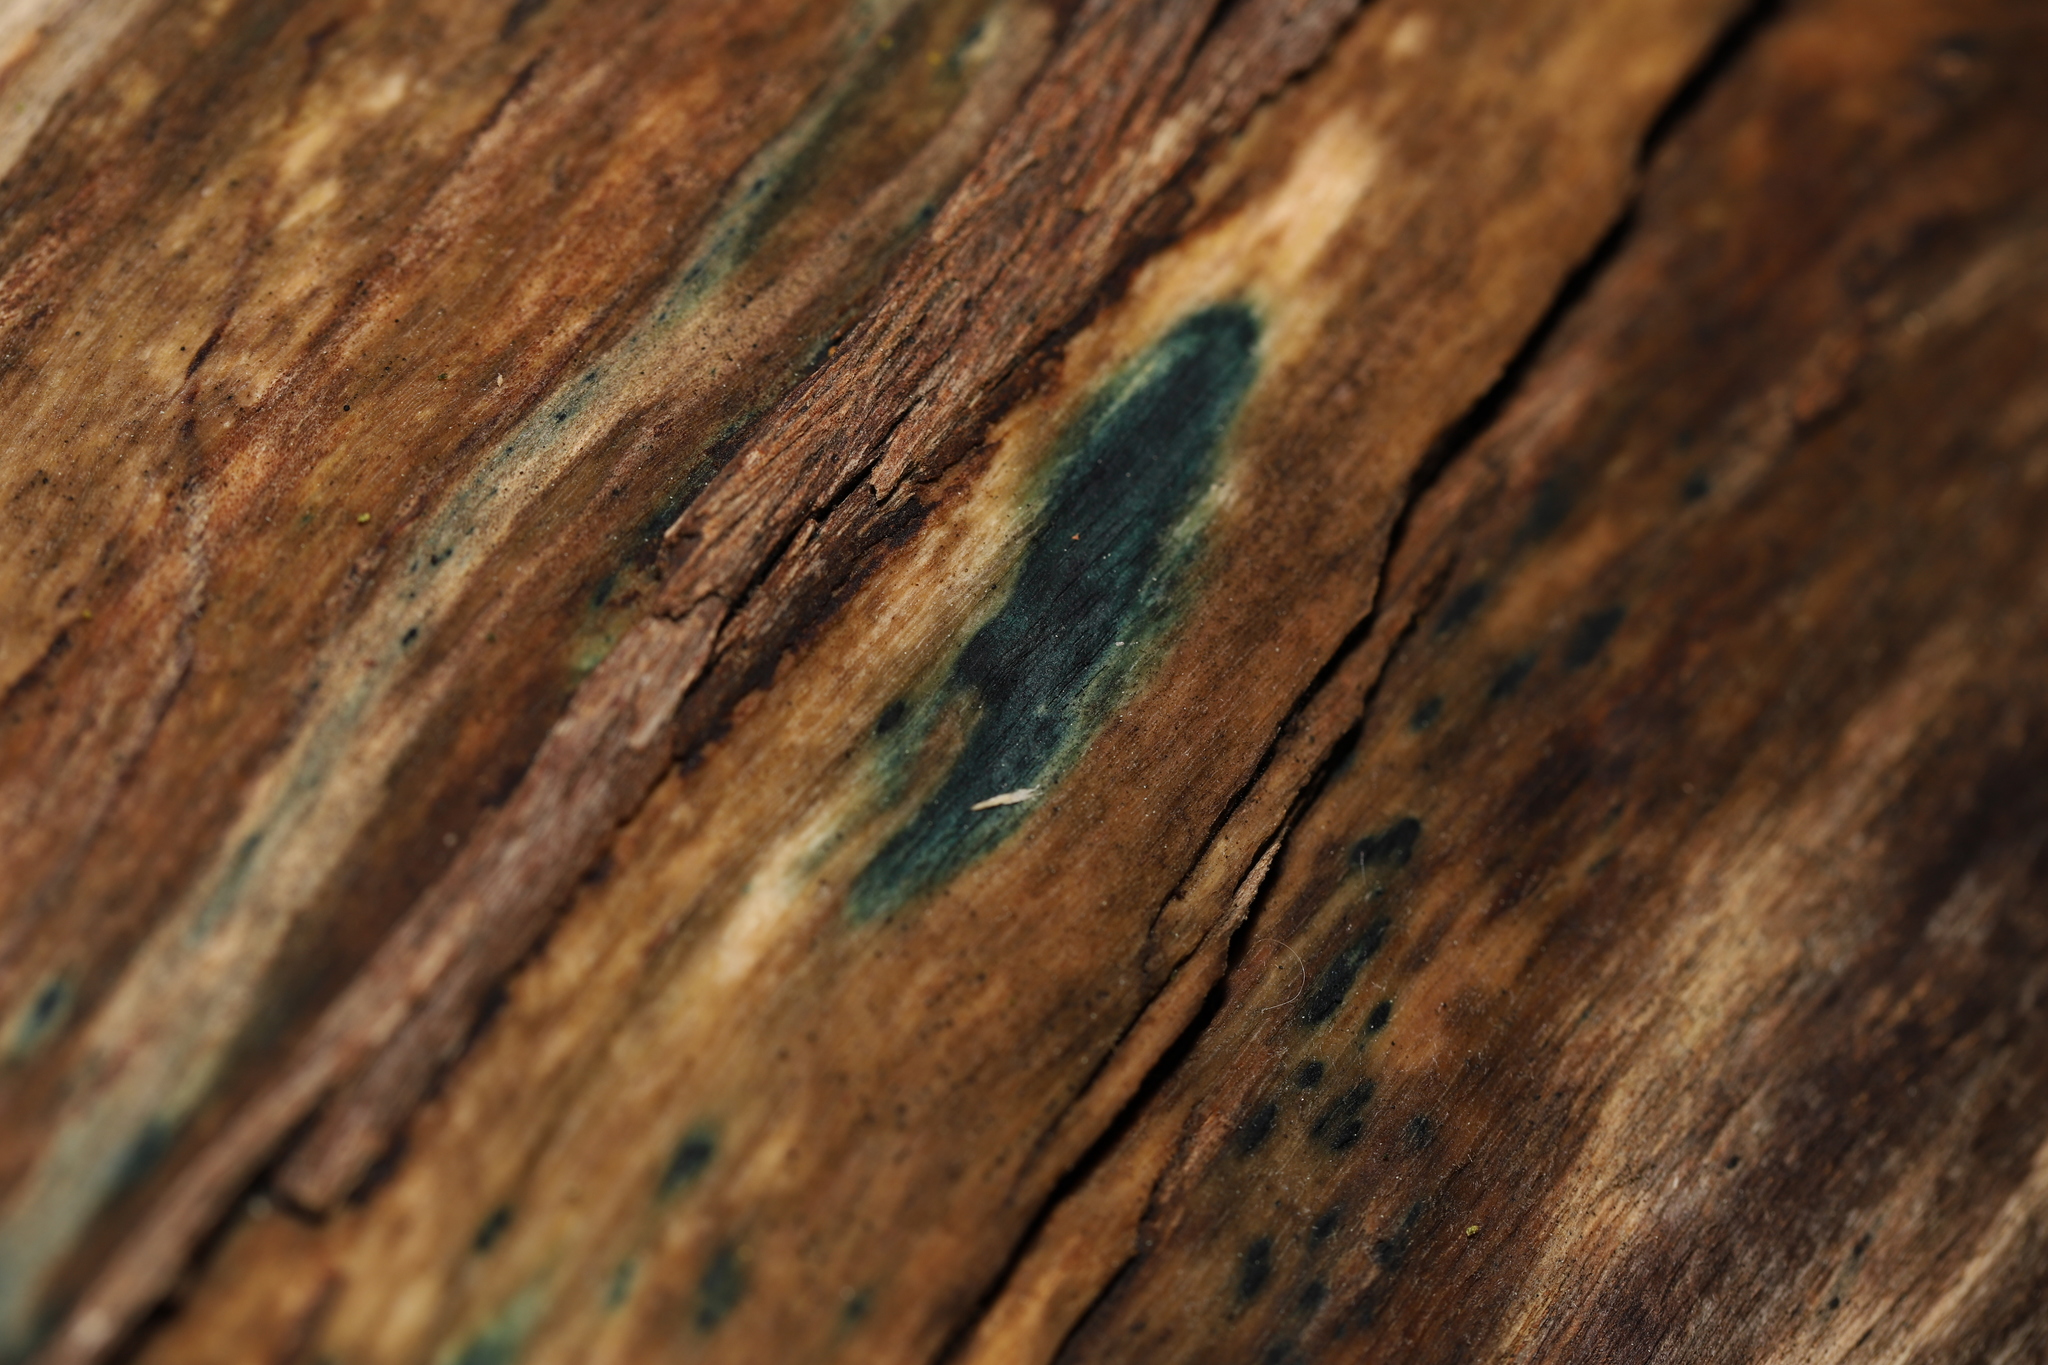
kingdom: Fungi
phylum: Ascomycota
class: Leotiomycetes
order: Helotiales
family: Chlorociboriaceae
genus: Chlorociboria
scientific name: Chlorociboria
